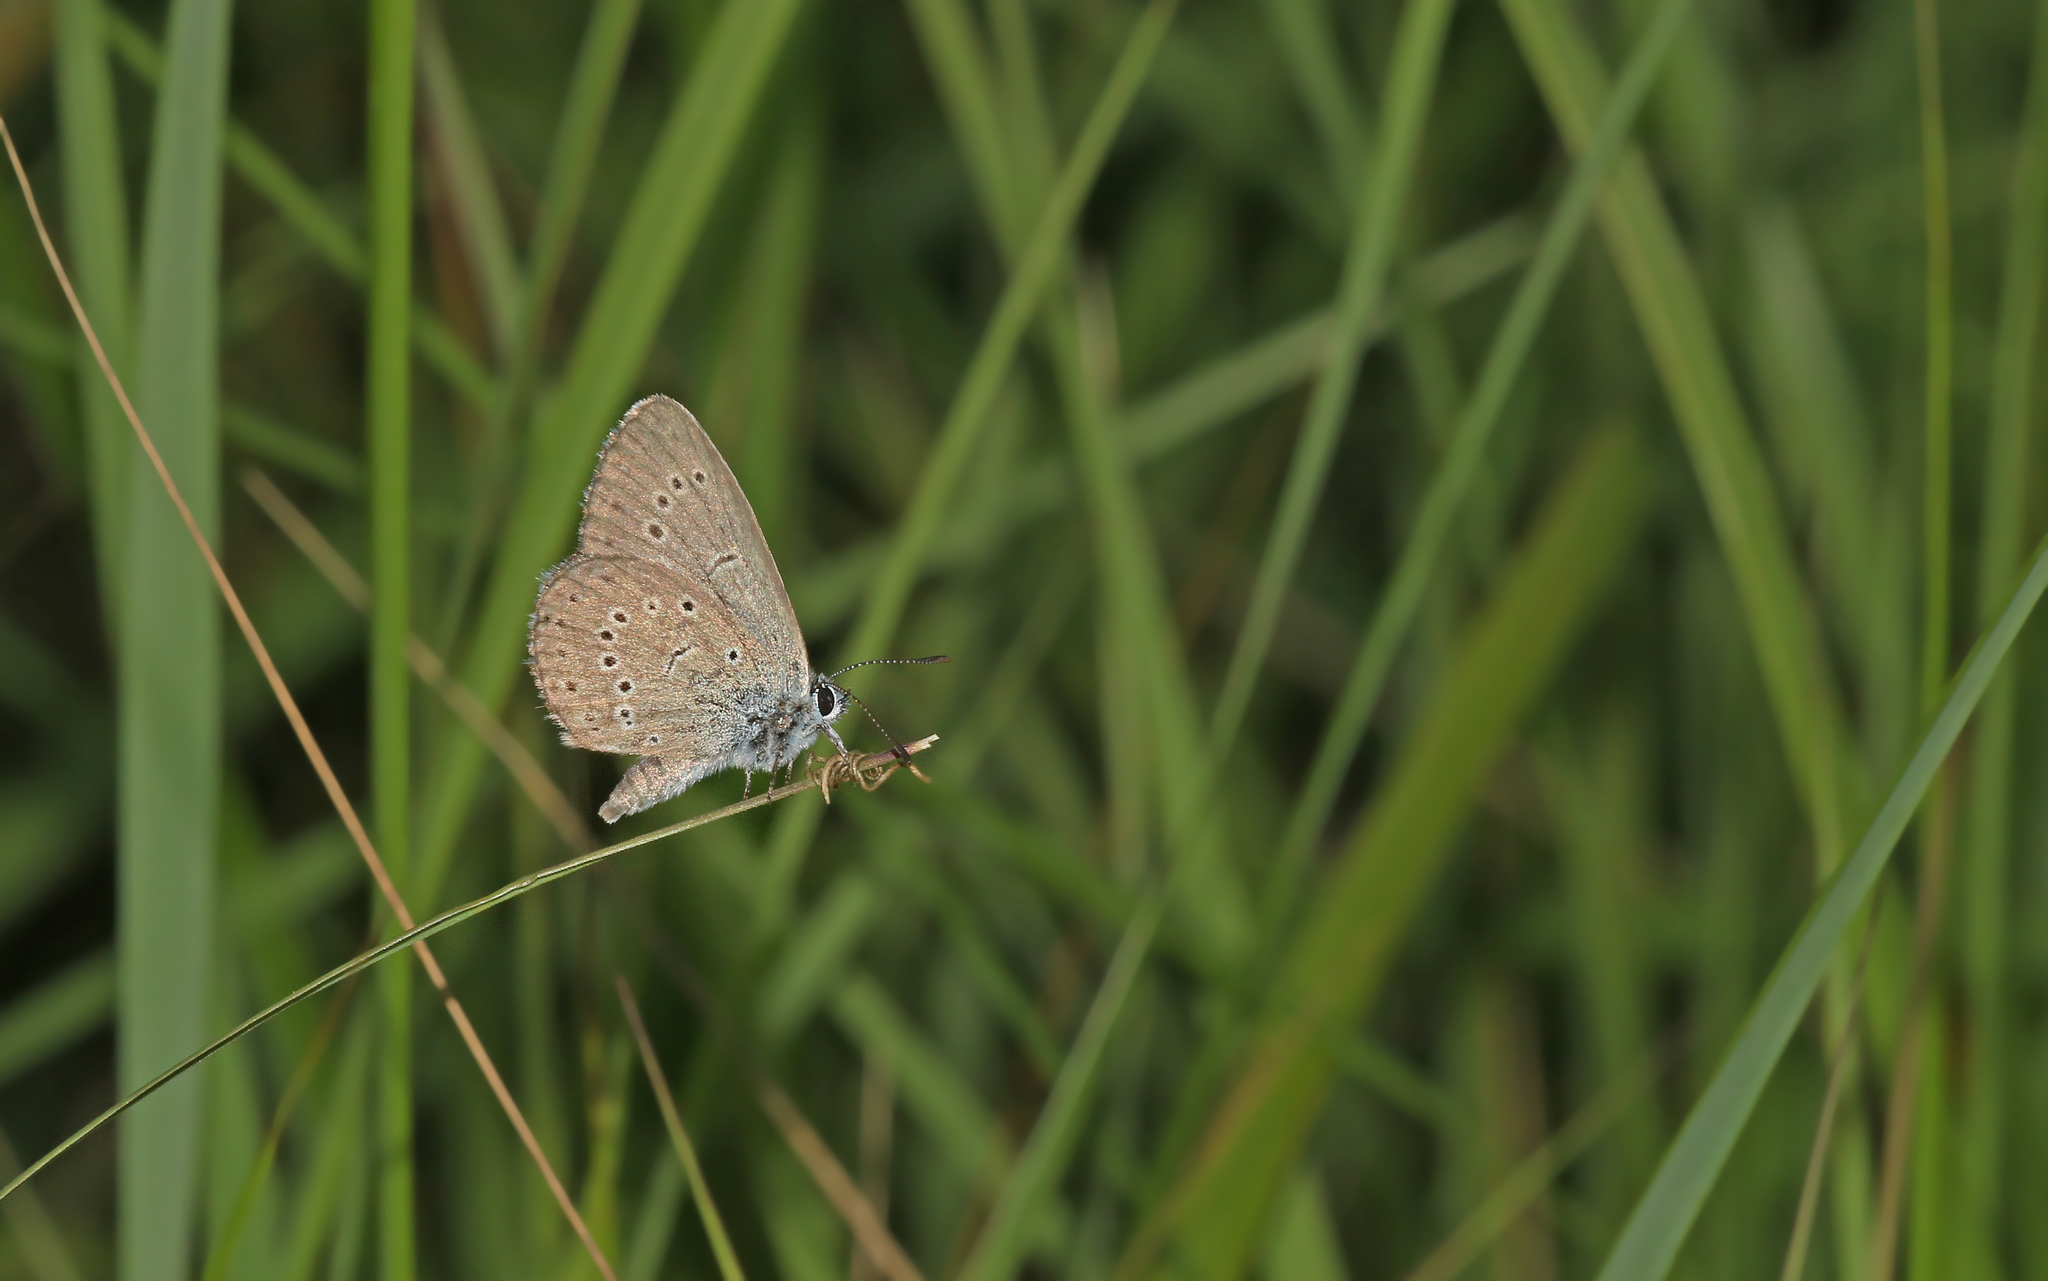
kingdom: Animalia
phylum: Arthropoda
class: Insecta
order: Lepidoptera
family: Lycaenidae
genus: Phengaris
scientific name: Phengaris teleius
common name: Scarce large blue
